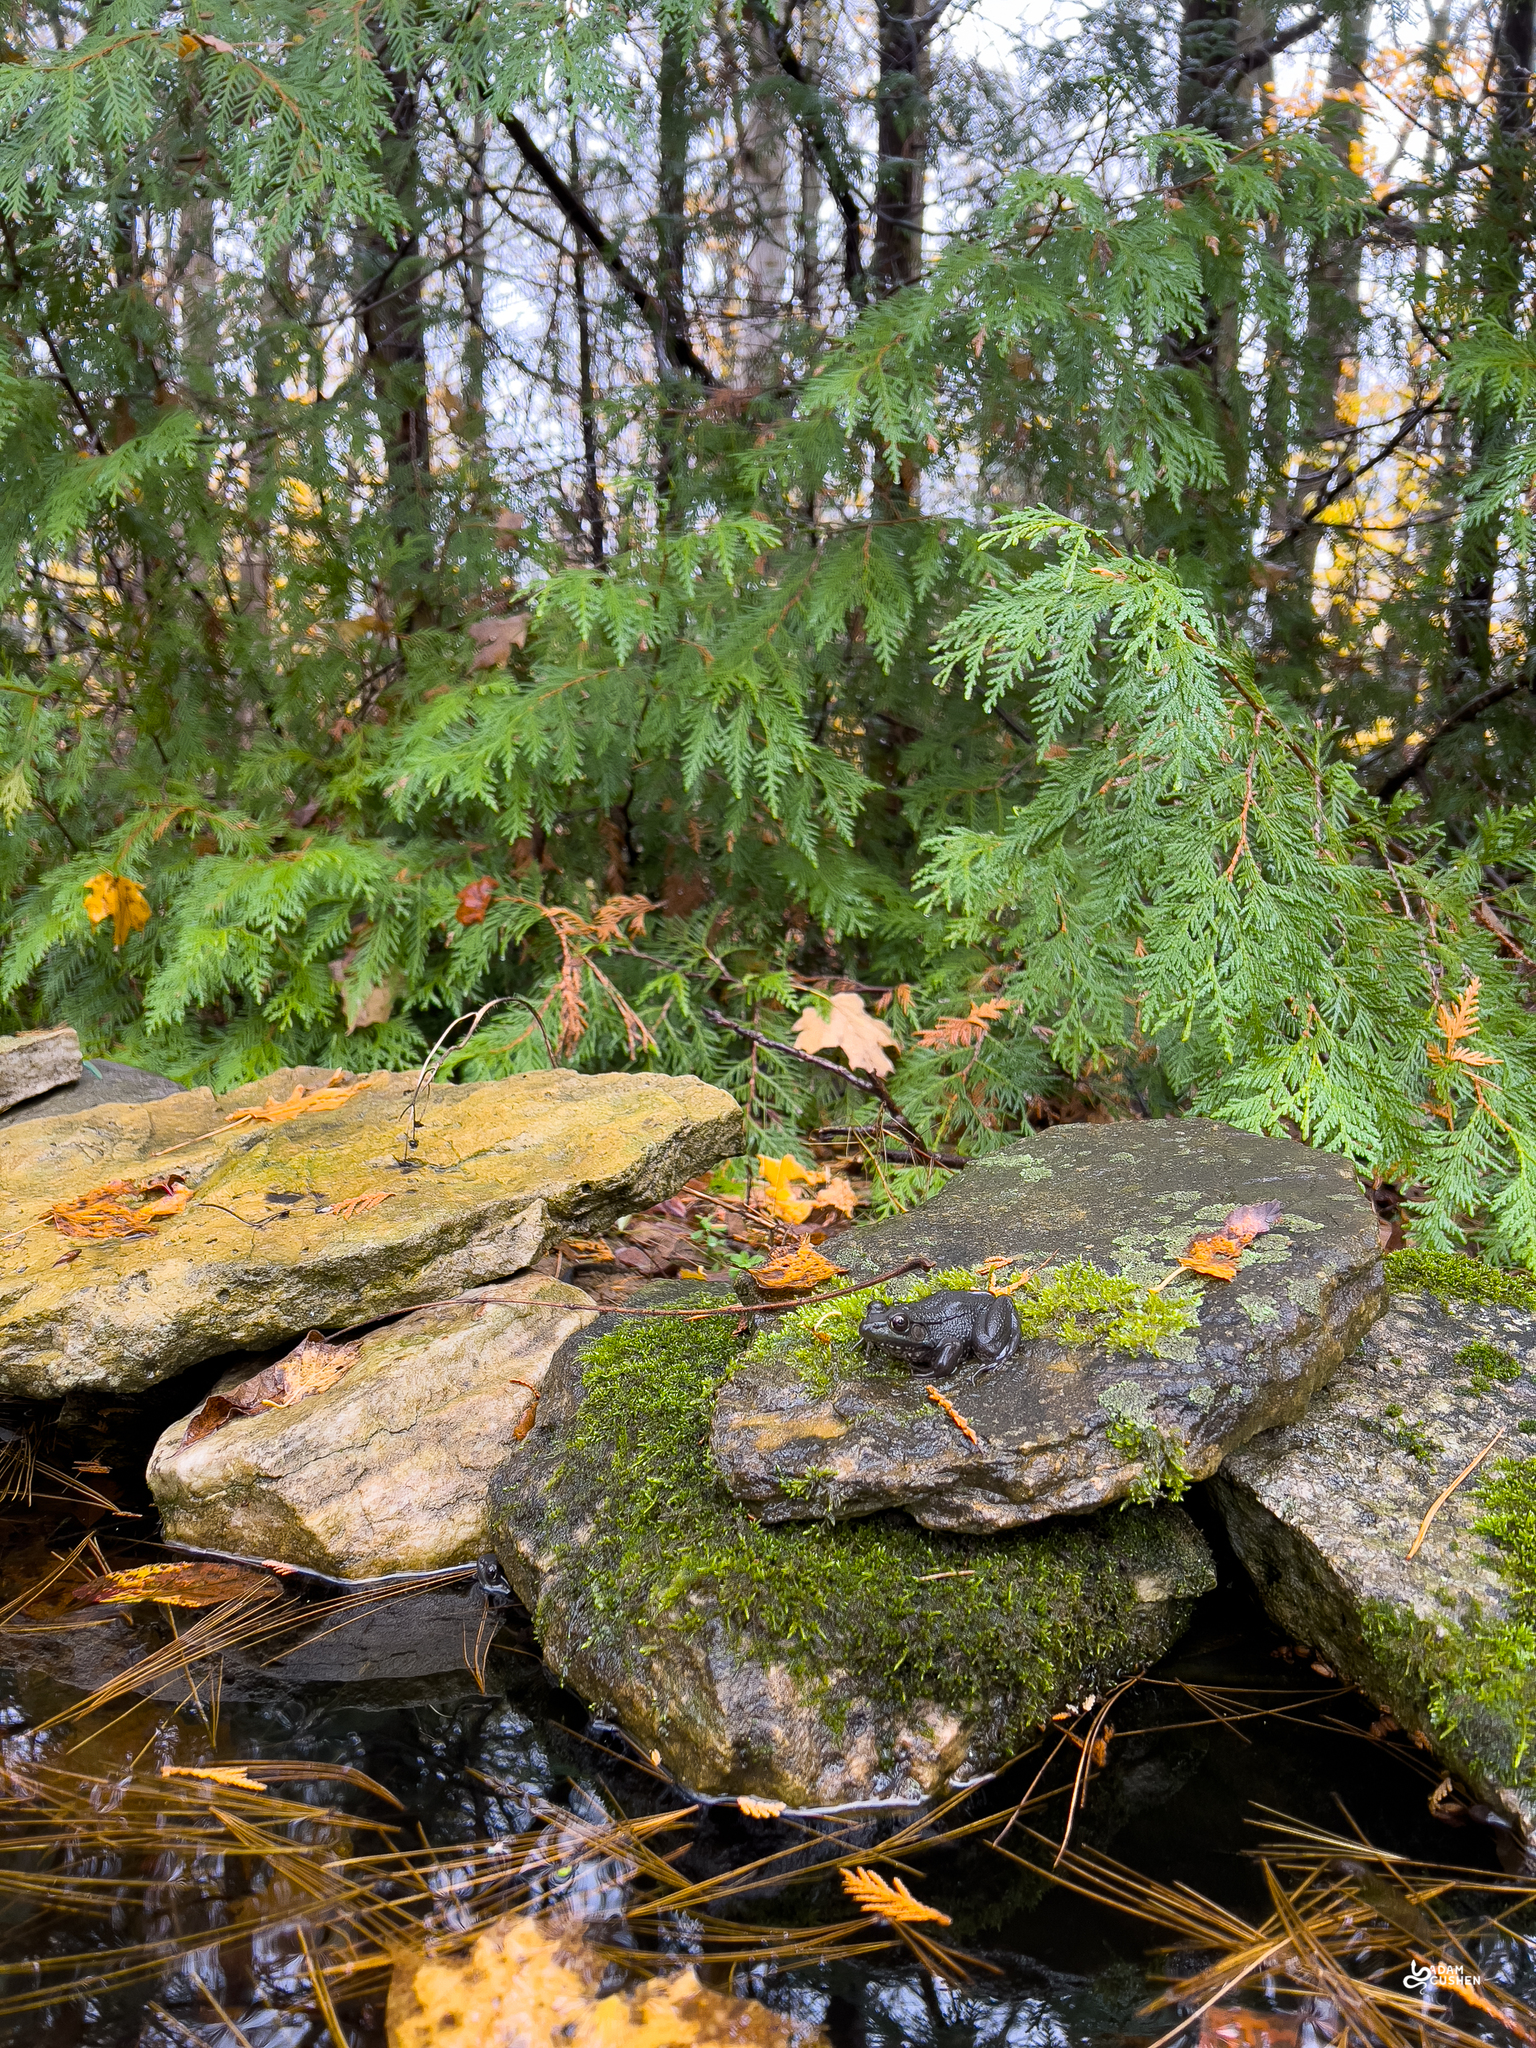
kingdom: Animalia
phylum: Chordata
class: Amphibia
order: Anura
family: Ranidae
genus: Lithobates
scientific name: Lithobates clamitans
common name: Green frog
